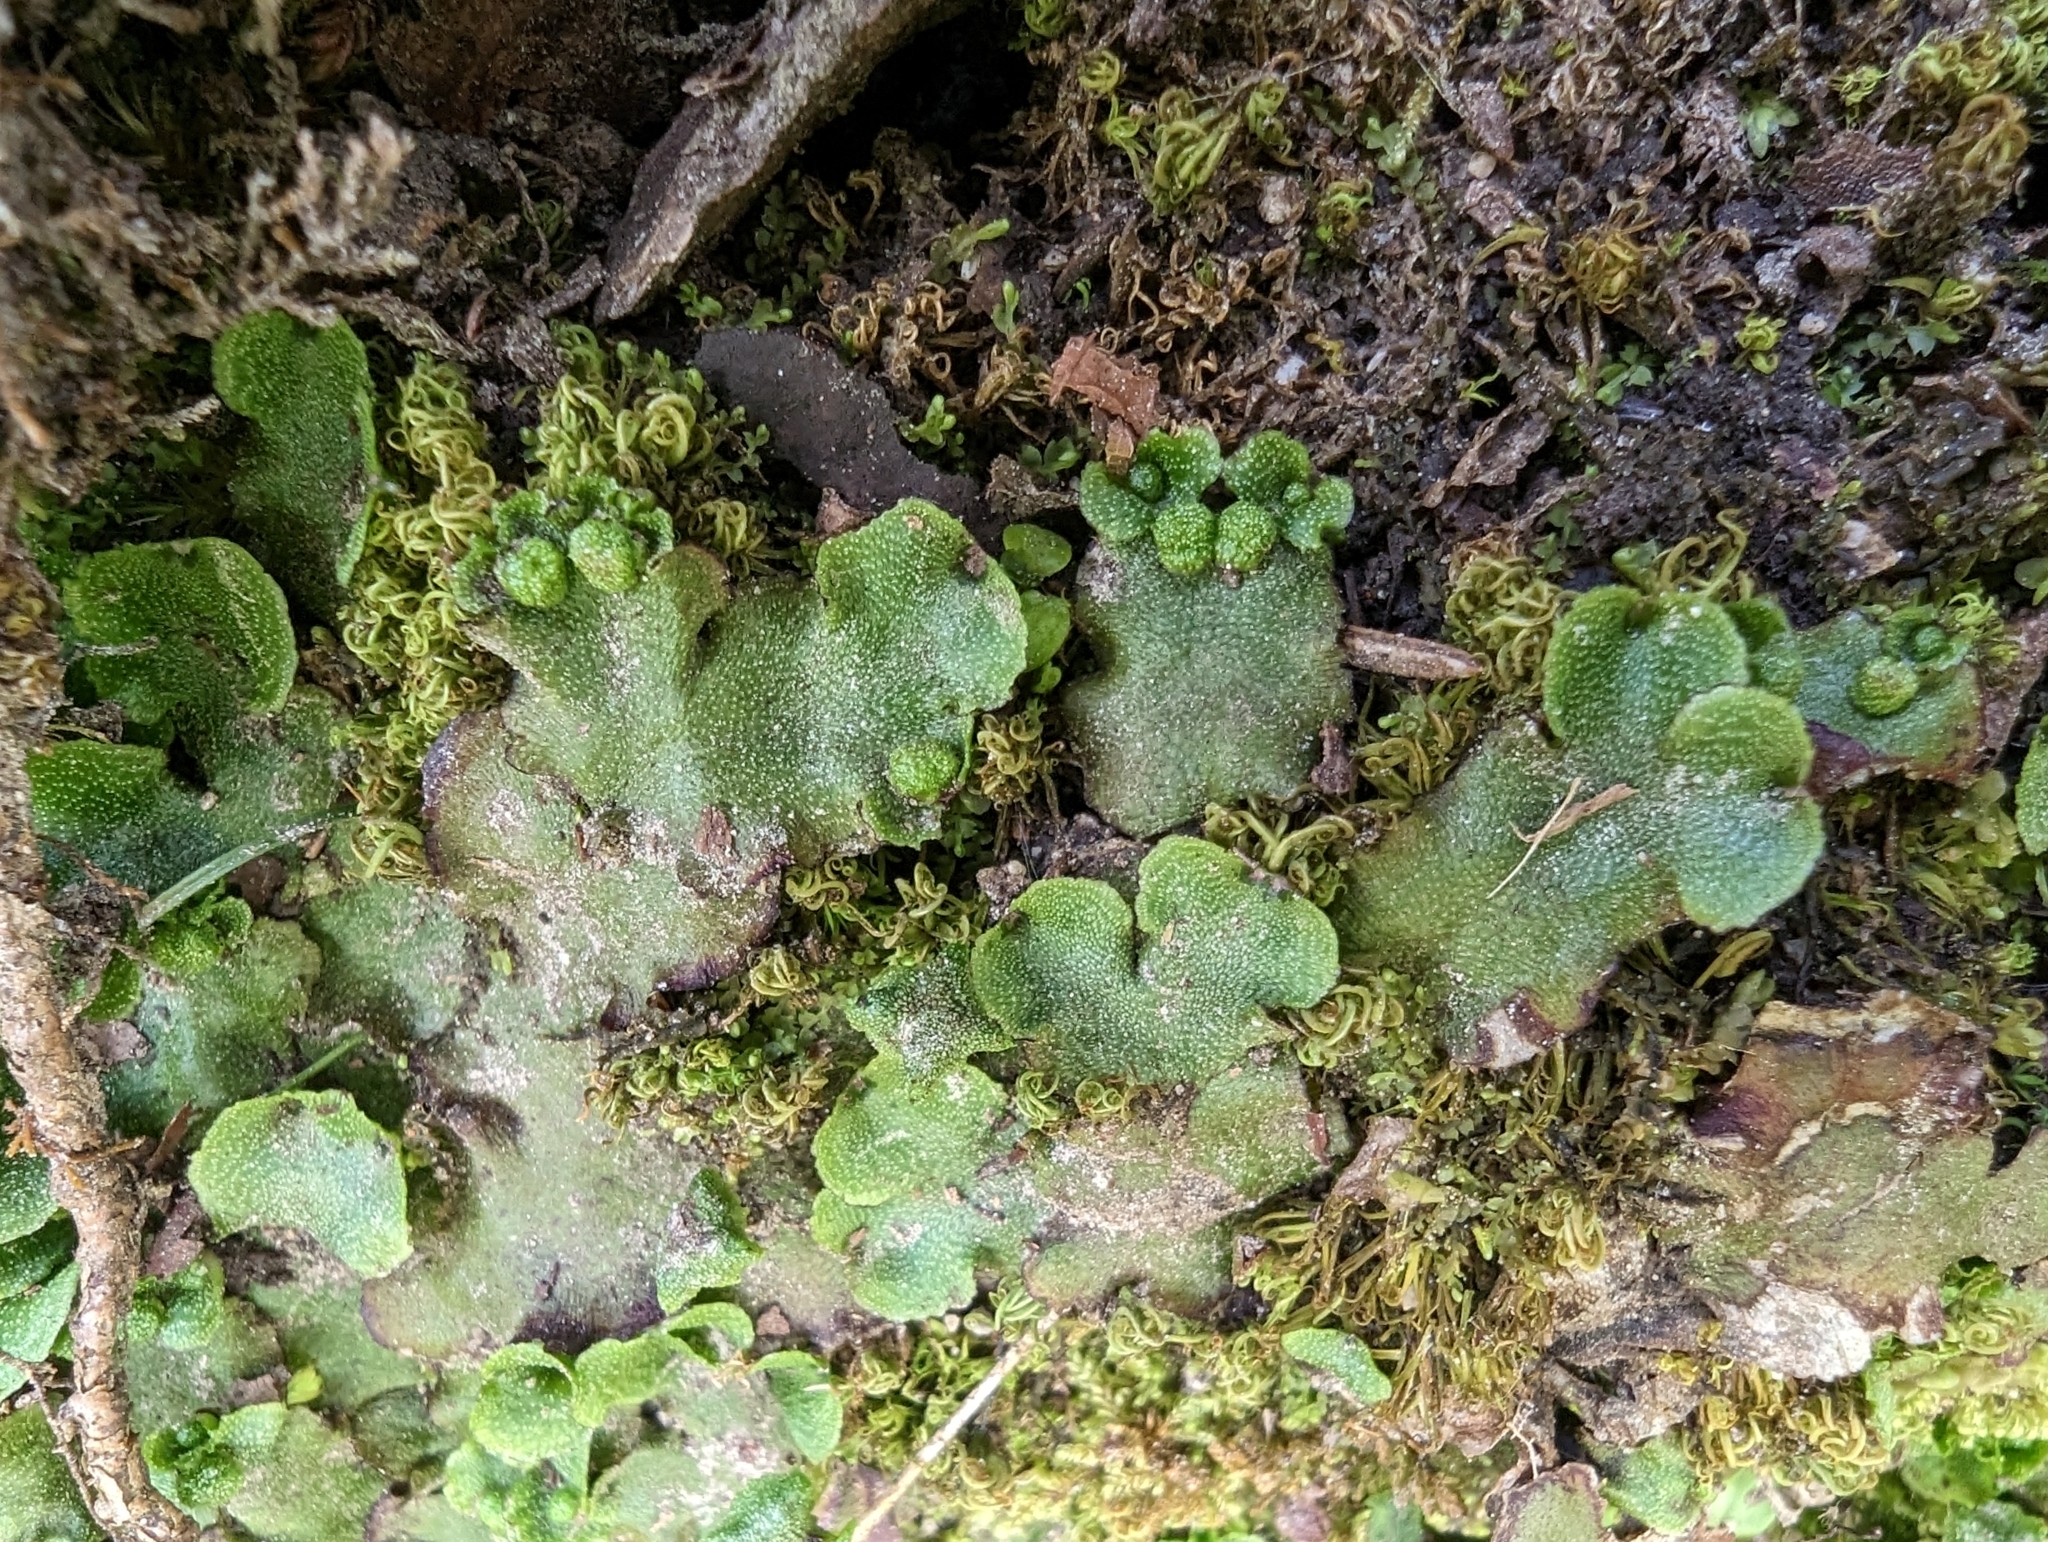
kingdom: Plantae
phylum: Marchantiophyta
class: Marchantiopsida
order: Marchantiales
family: Marchantiaceae
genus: Marchantia
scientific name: Marchantia quadrata
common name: Narrow mushroom-headed liverwort
